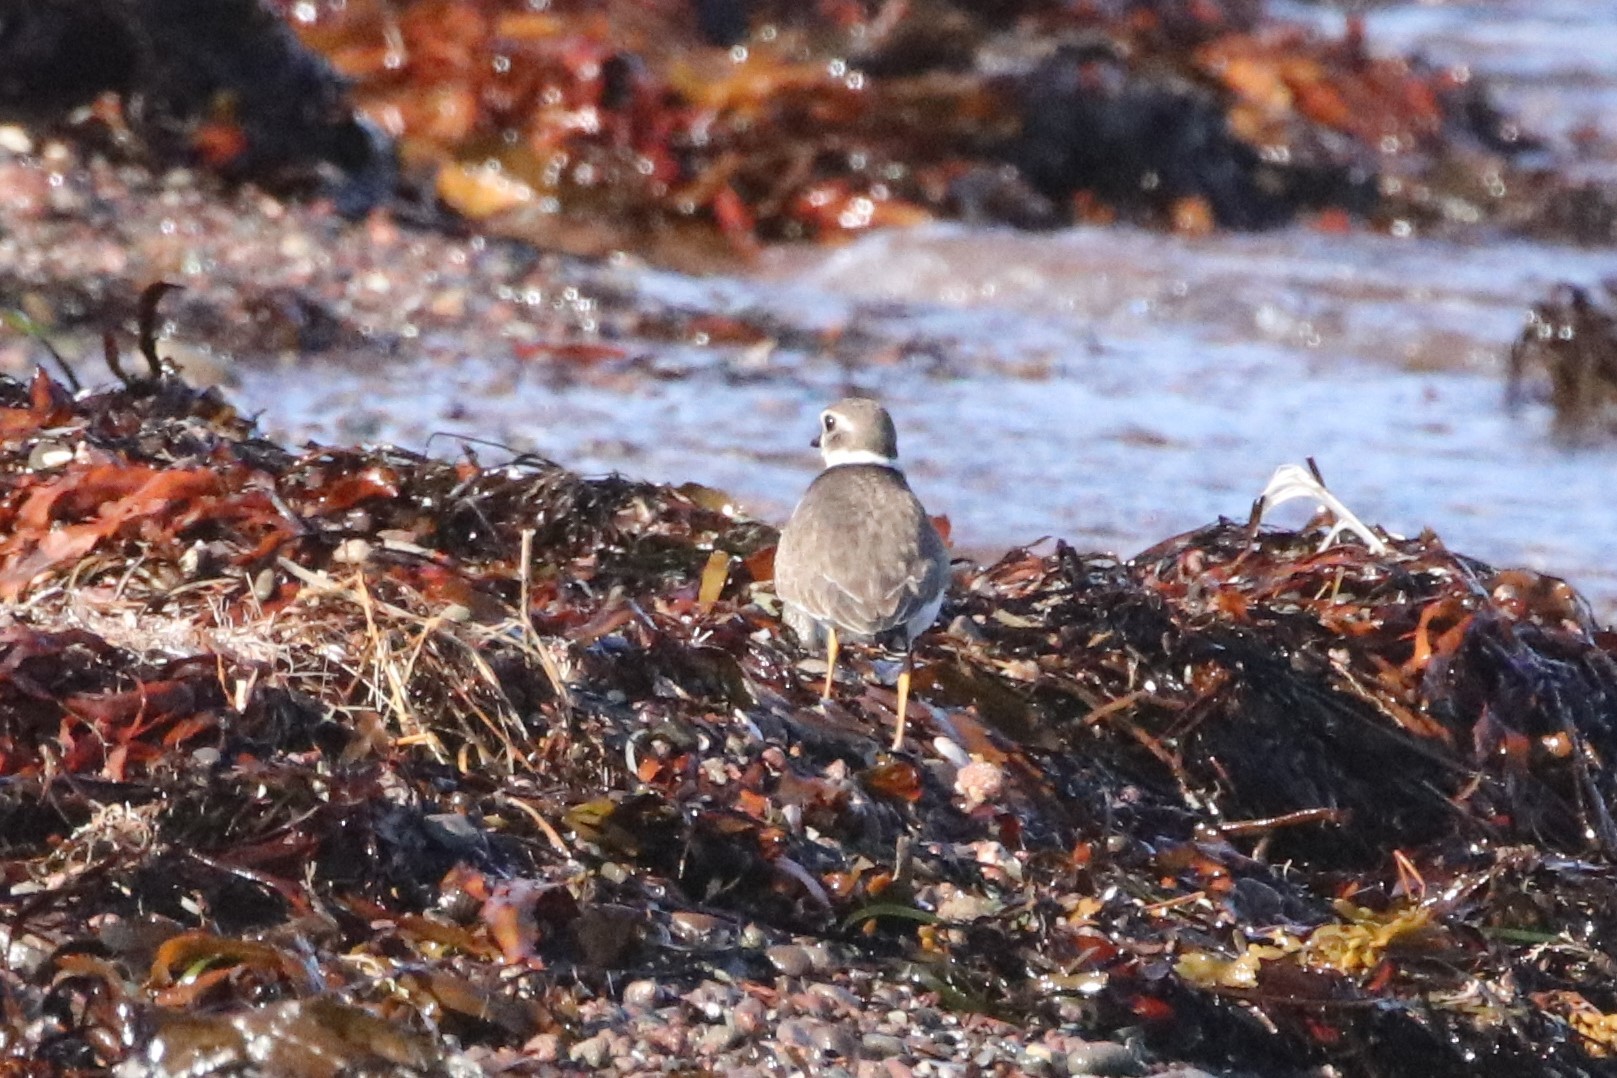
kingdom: Animalia
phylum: Chordata
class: Aves
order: Charadriiformes
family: Charadriidae
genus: Charadrius
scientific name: Charadrius semipalmatus
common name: Semipalmated plover
